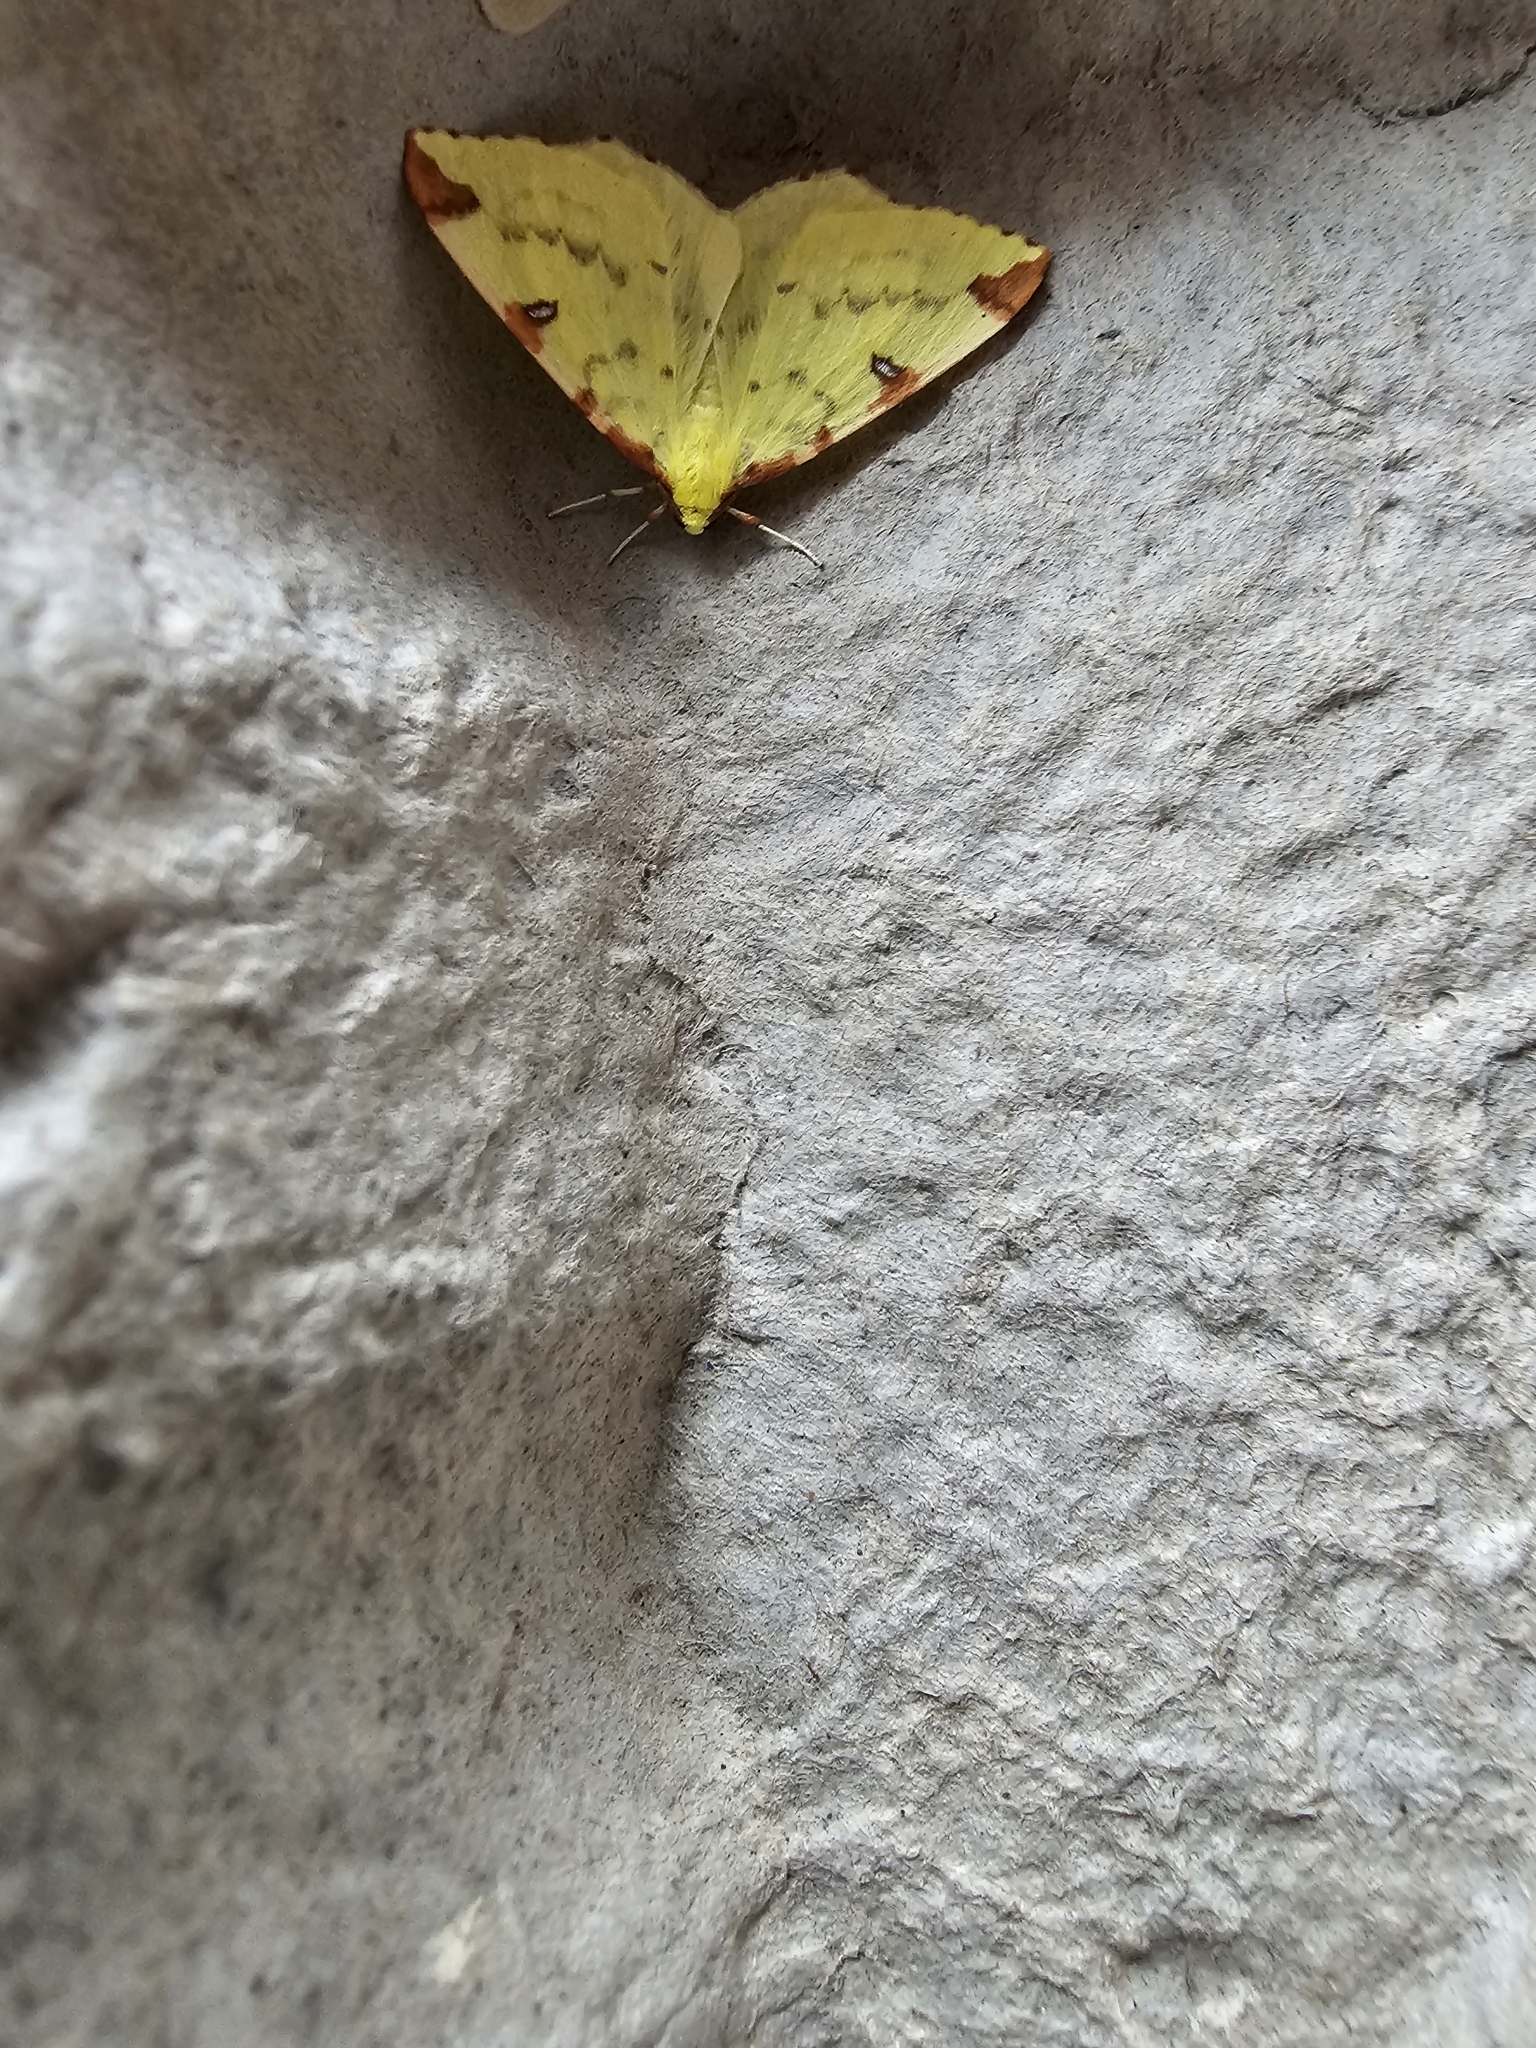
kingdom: Animalia
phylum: Arthropoda
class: Insecta
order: Lepidoptera
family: Geometridae
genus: Opisthograptis
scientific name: Opisthograptis luteolata
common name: Brimstone moth
